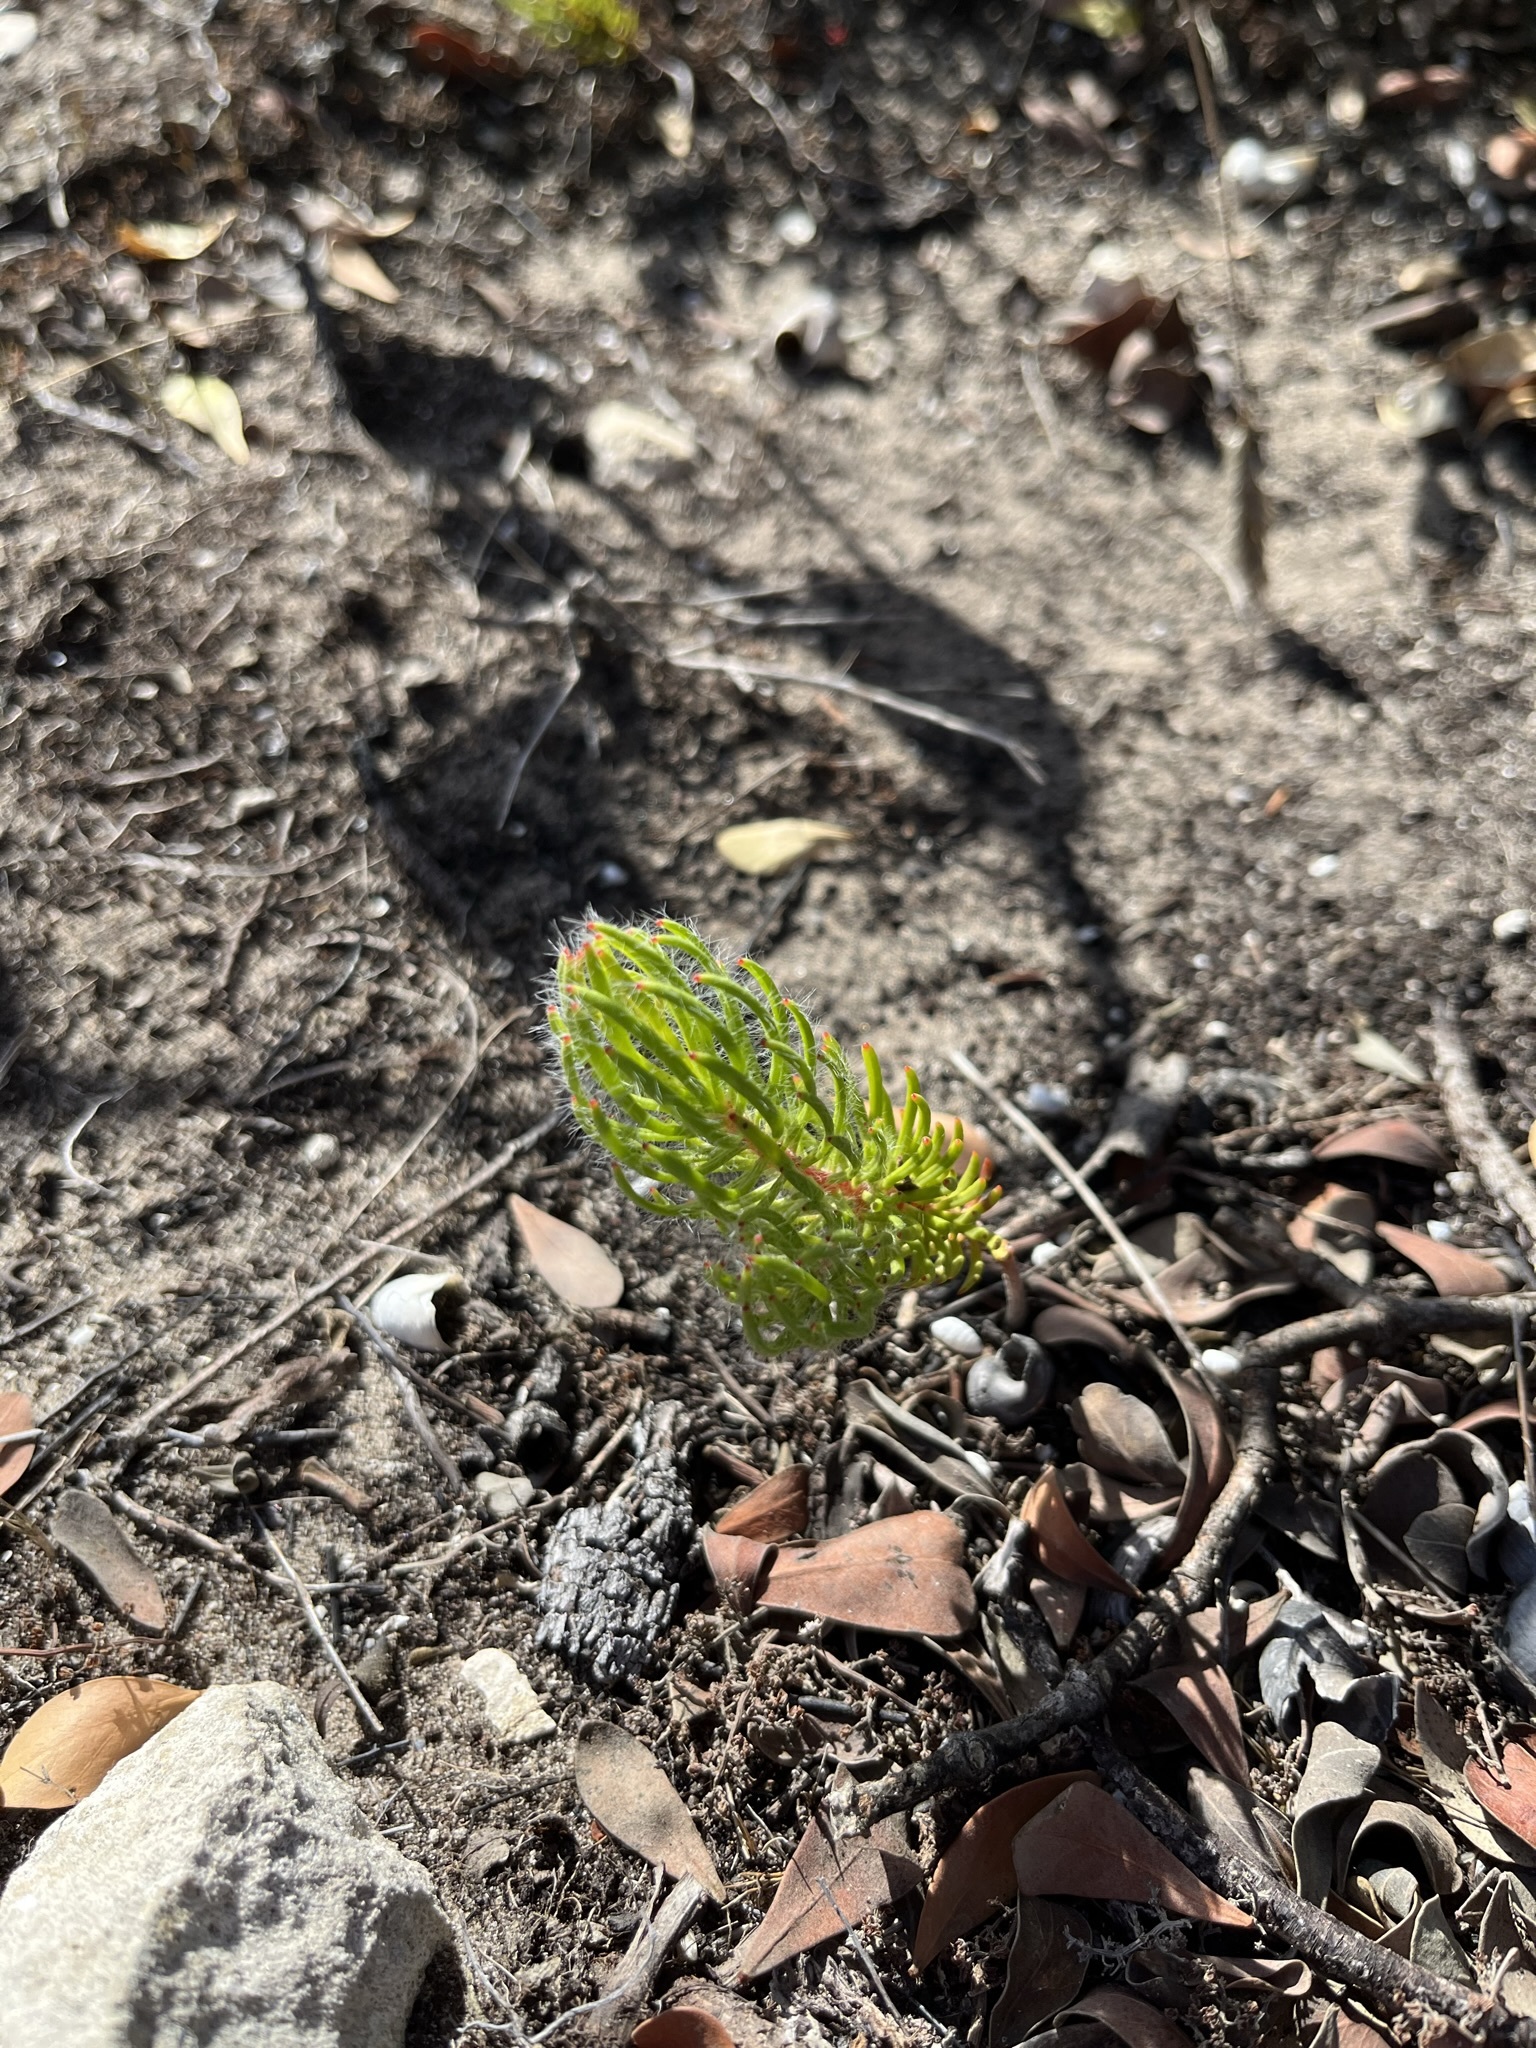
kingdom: Plantae
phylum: Tracheophyta
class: Magnoliopsida
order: Proteales
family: Proteaceae
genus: Leucadendron
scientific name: Leucadendron muirii
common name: Silver-ball conebush
